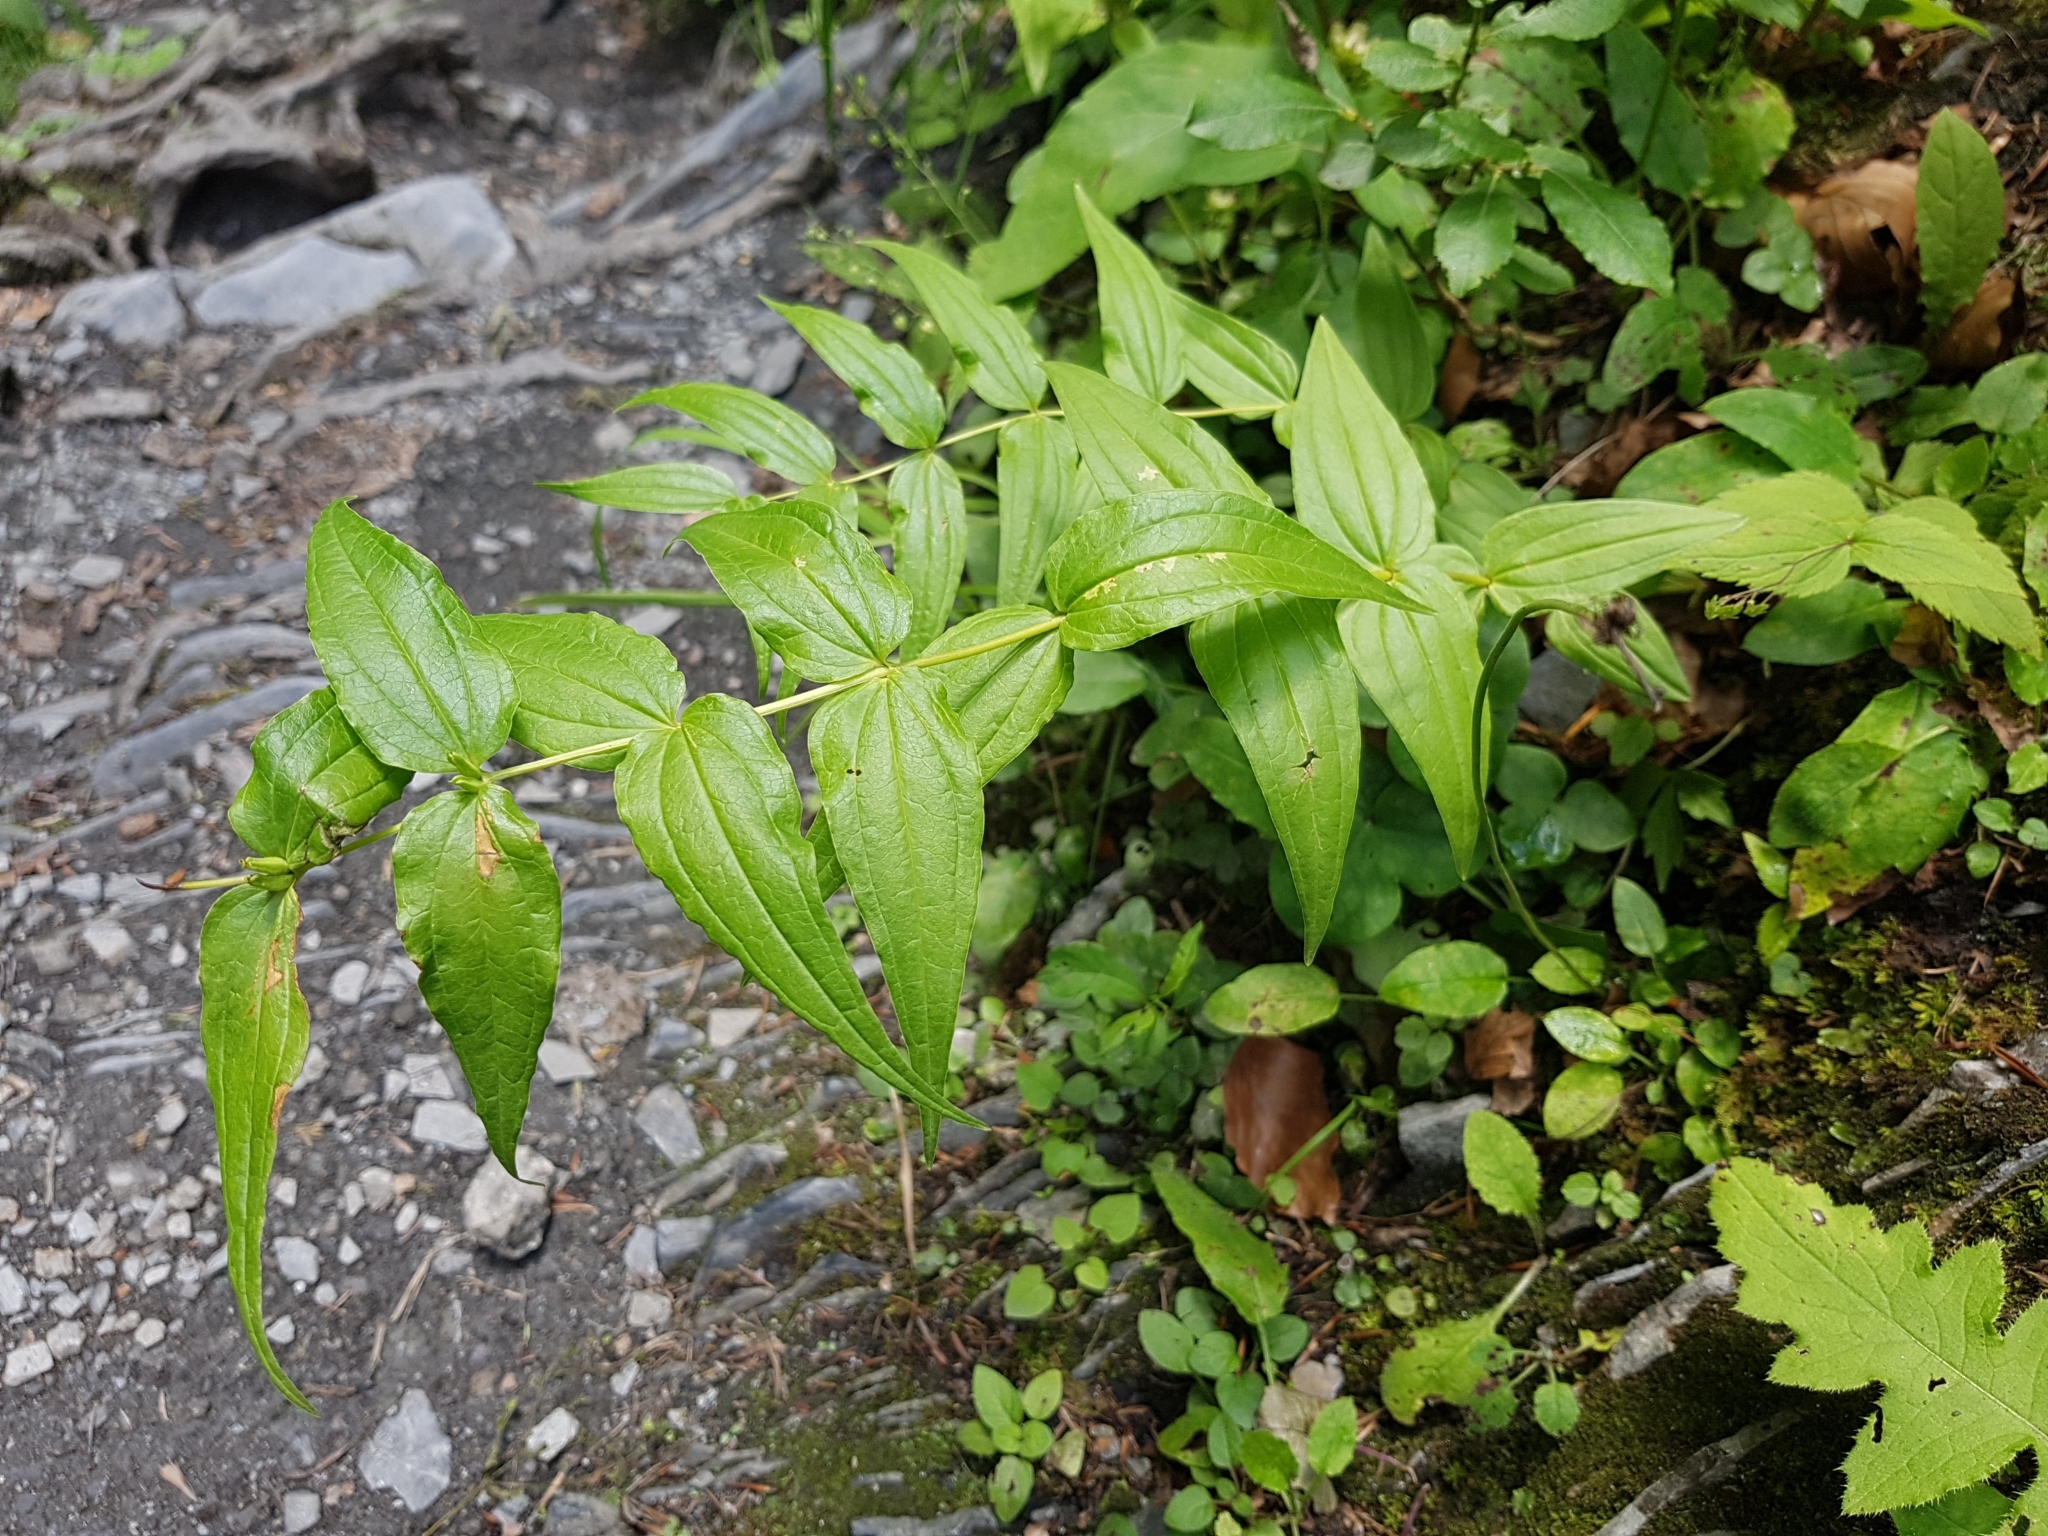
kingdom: Plantae
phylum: Tracheophyta
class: Magnoliopsida
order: Gentianales
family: Gentianaceae
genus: Gentiana
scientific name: Gentiana asclepiadea
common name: Willow gentian
